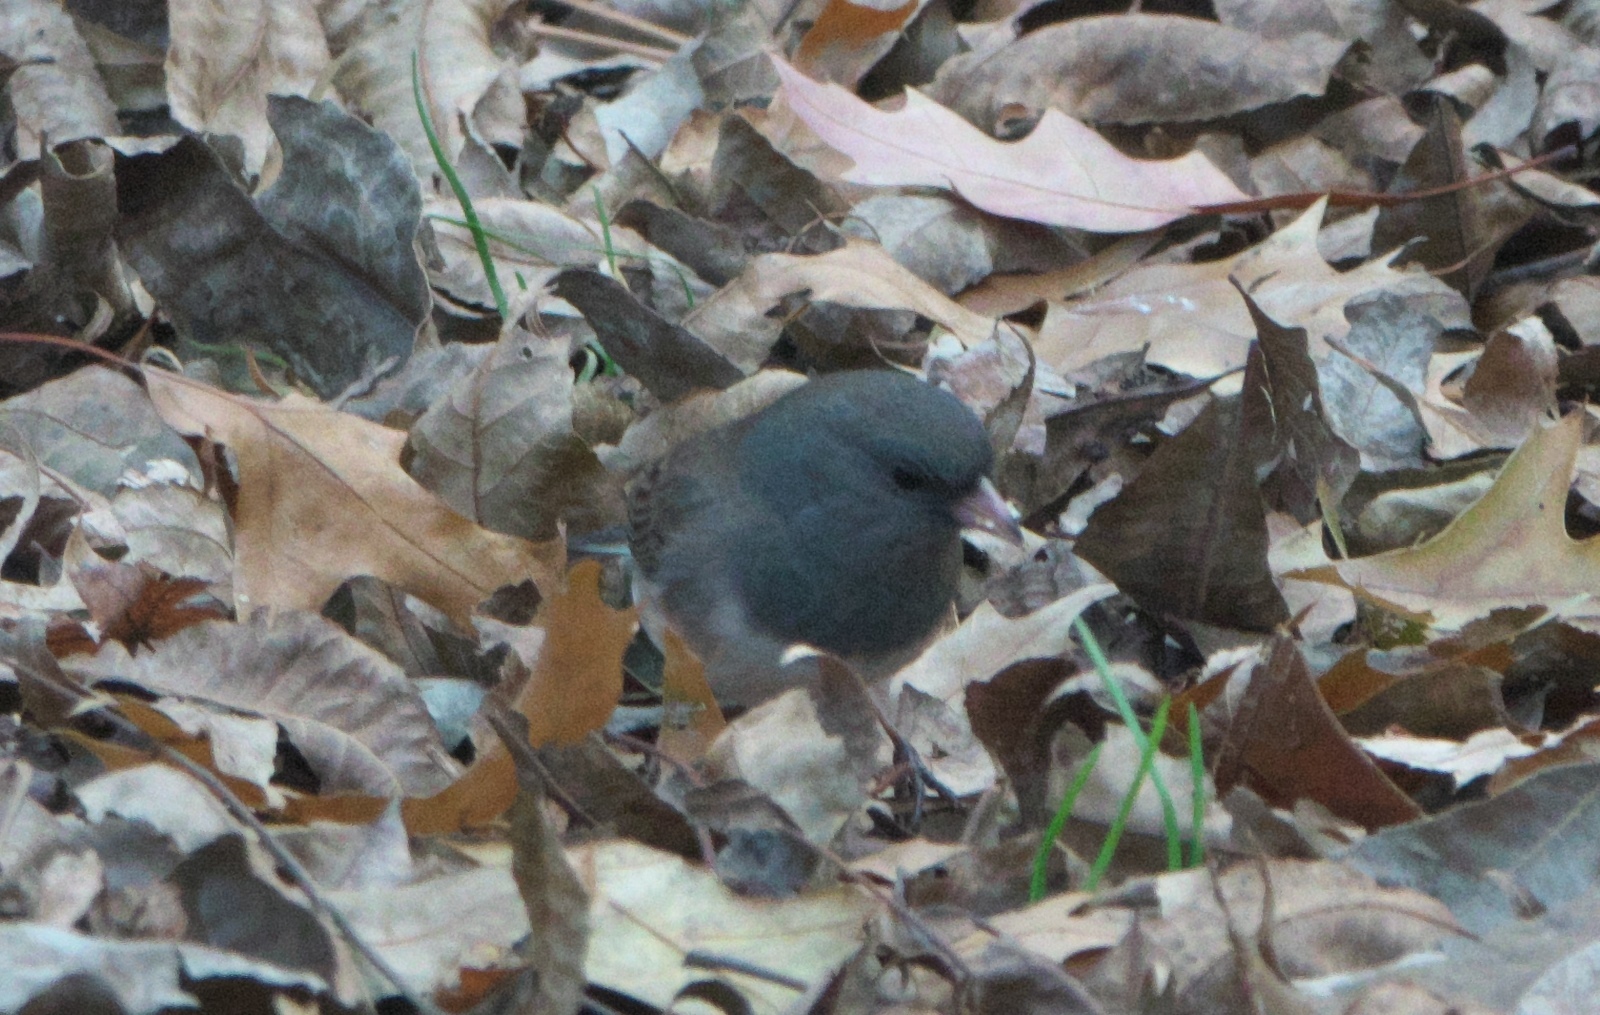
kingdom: Animalia
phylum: Chordata
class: Aves
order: Passeriformes
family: Passerellidae
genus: Junco
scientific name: Junco hyemalis
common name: Dark-eyed junco
